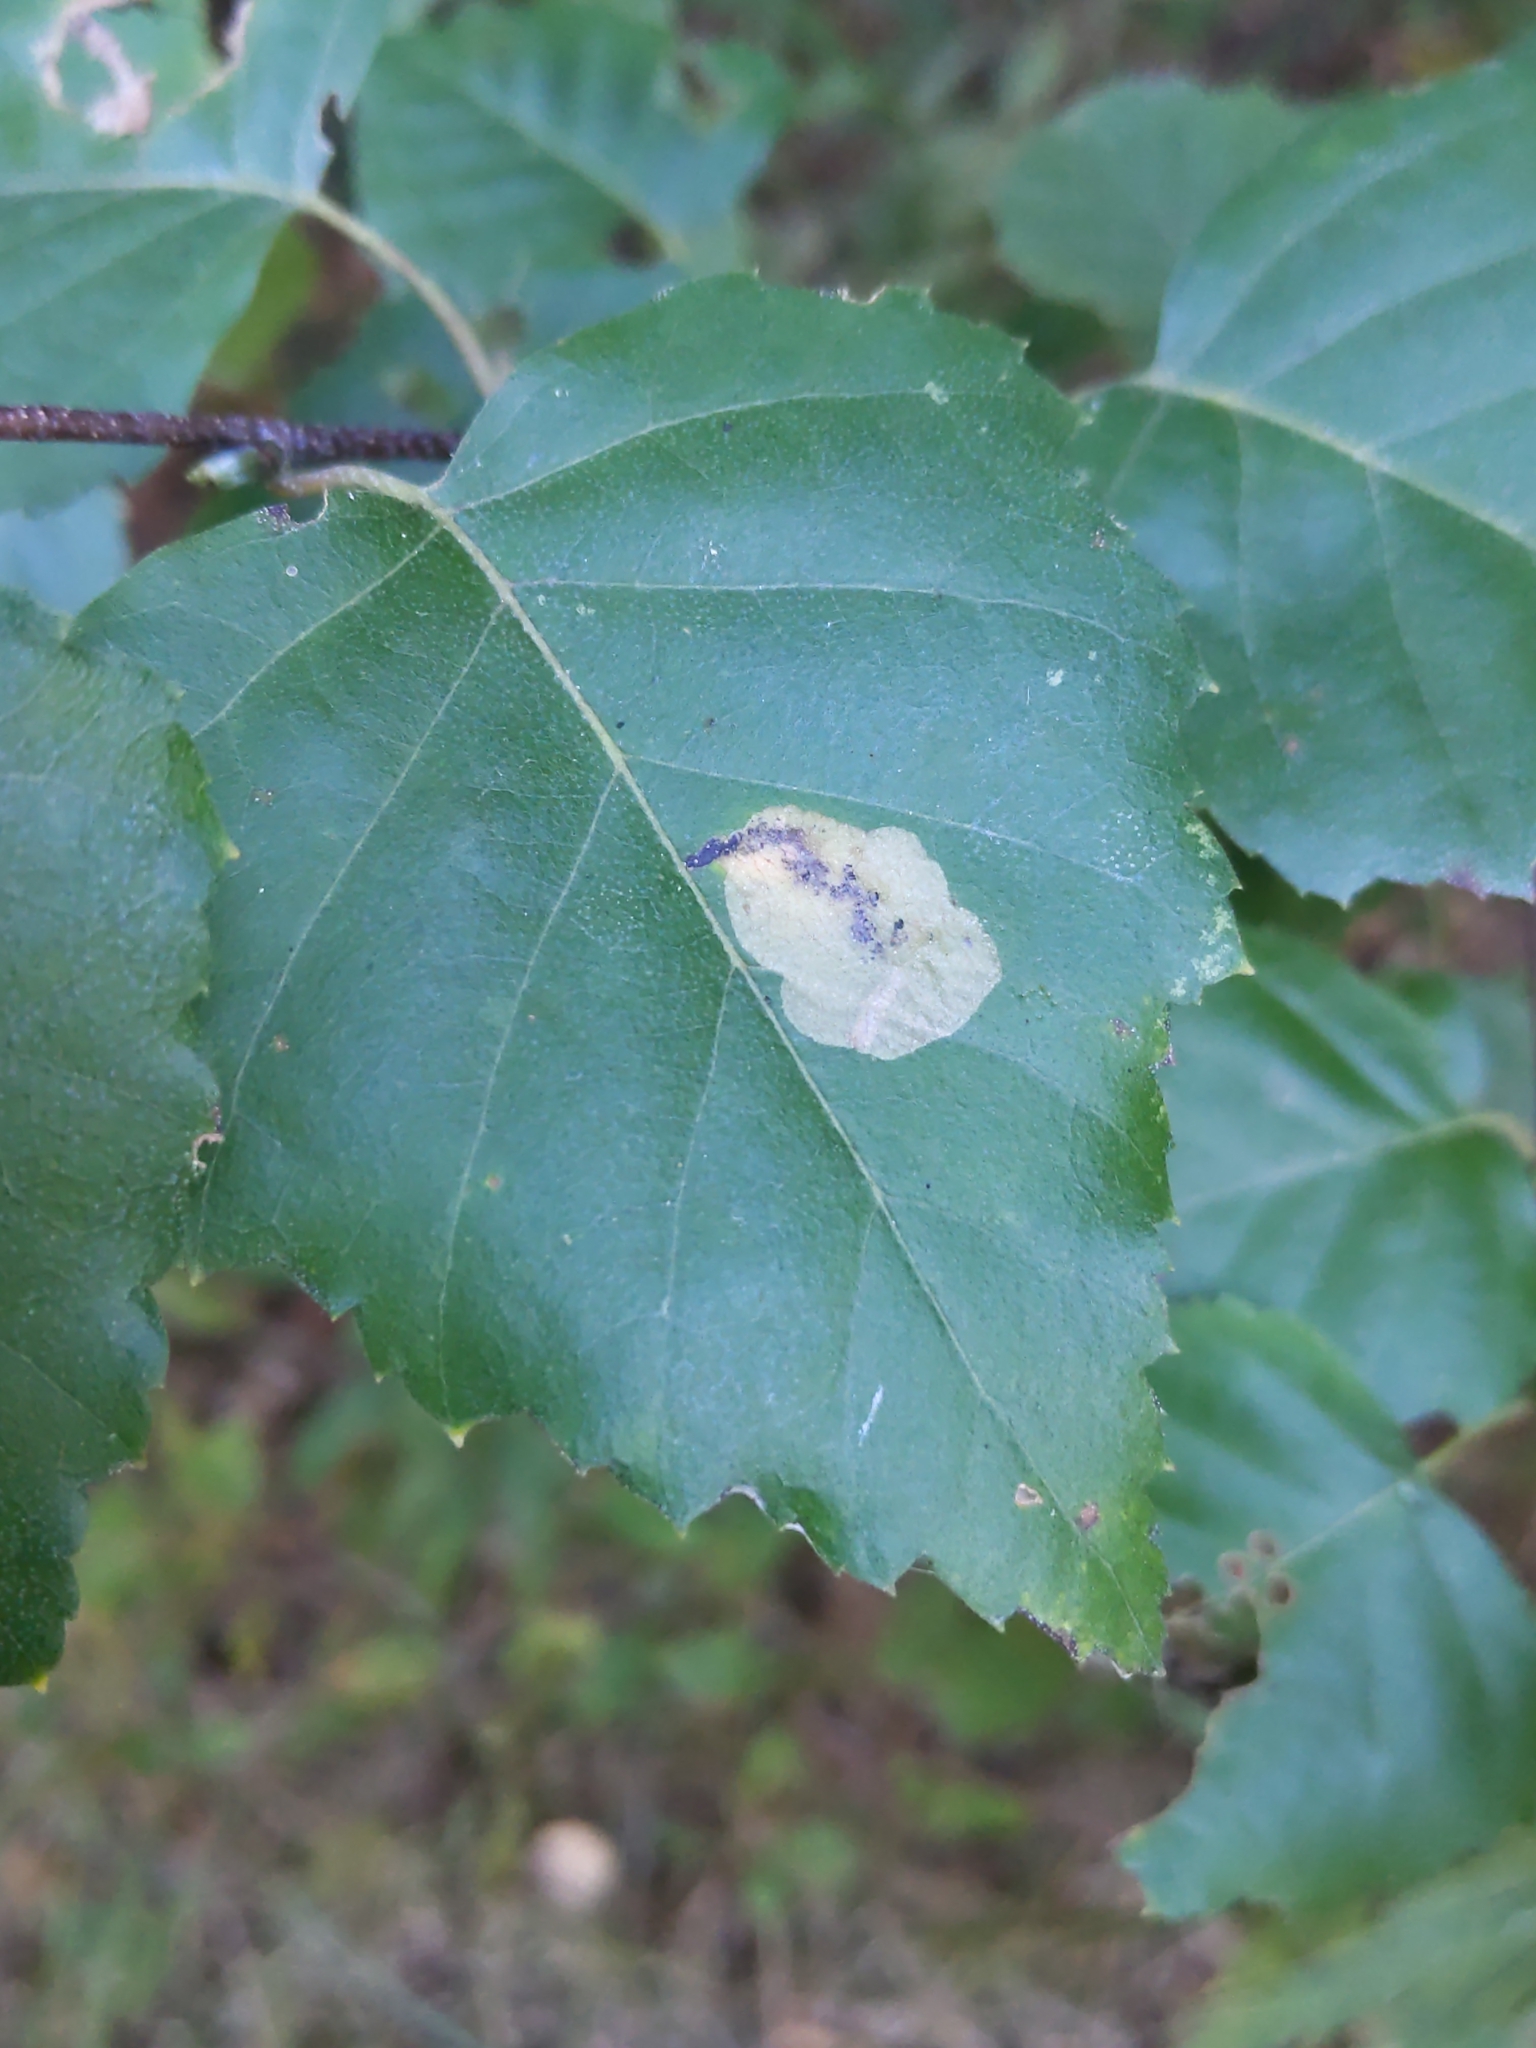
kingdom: Animalia
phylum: Arthropoda
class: Insecta
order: Hymenoptera
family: Tenthredinidae
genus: Profenusa
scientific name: Profenusa thomsoni
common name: Amber-marked birch leafminer
